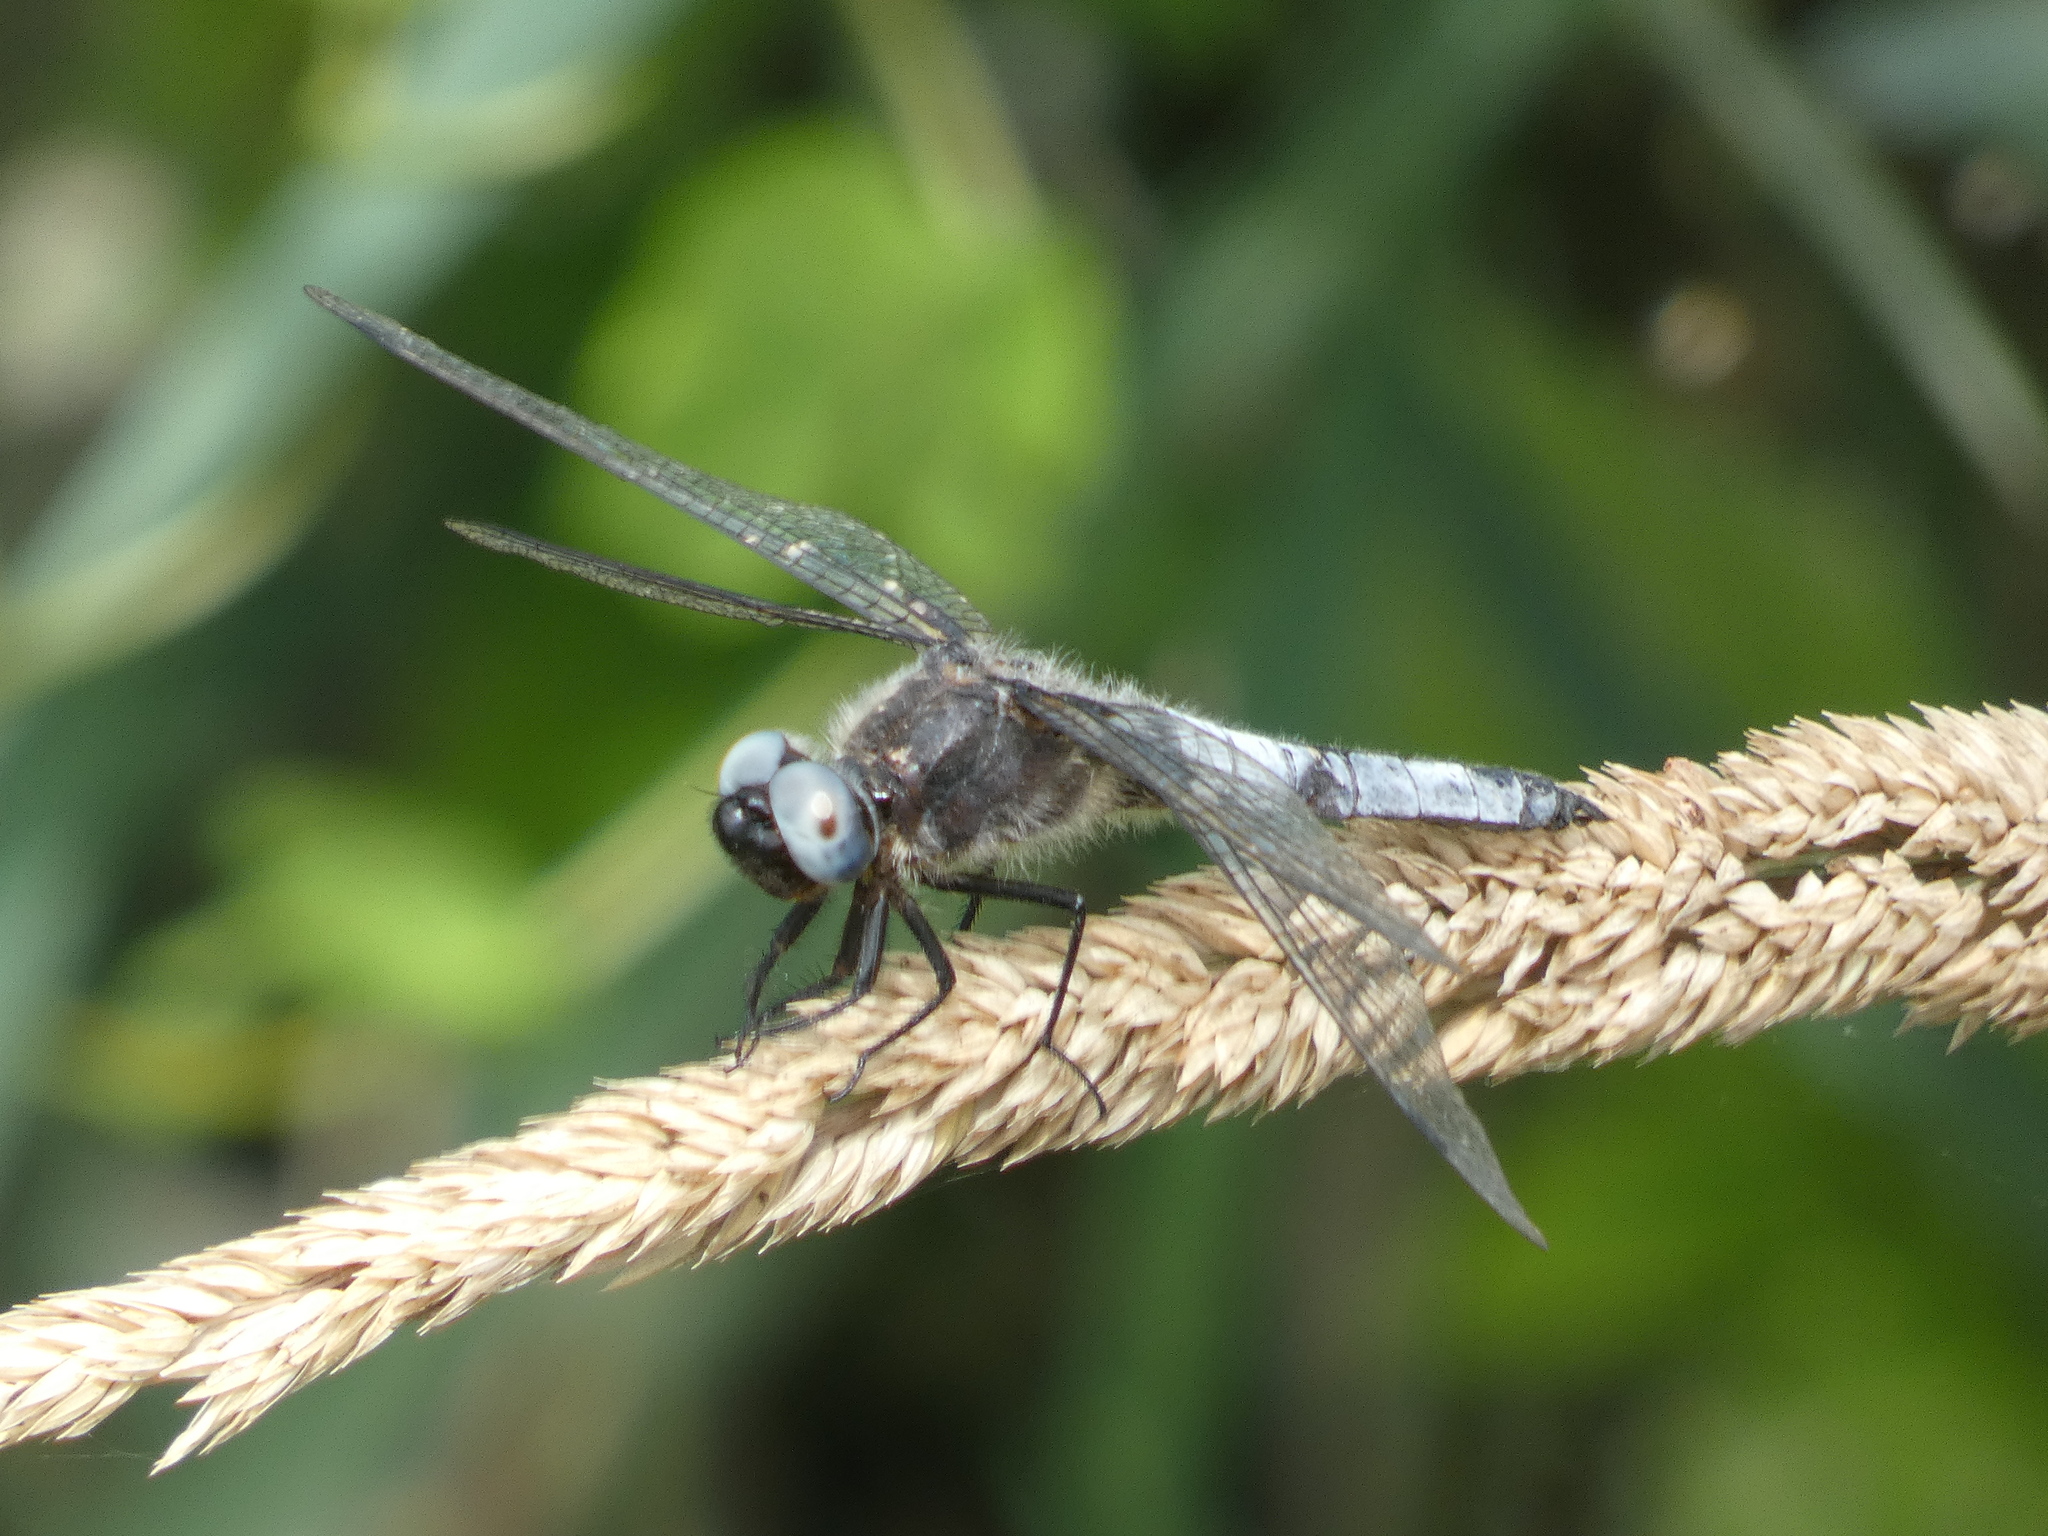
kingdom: Animalia
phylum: Arthropoda
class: Insecta
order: Odonata
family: Libellulidae
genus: Libellula
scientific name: Libellula fulva
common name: Blue chaser
